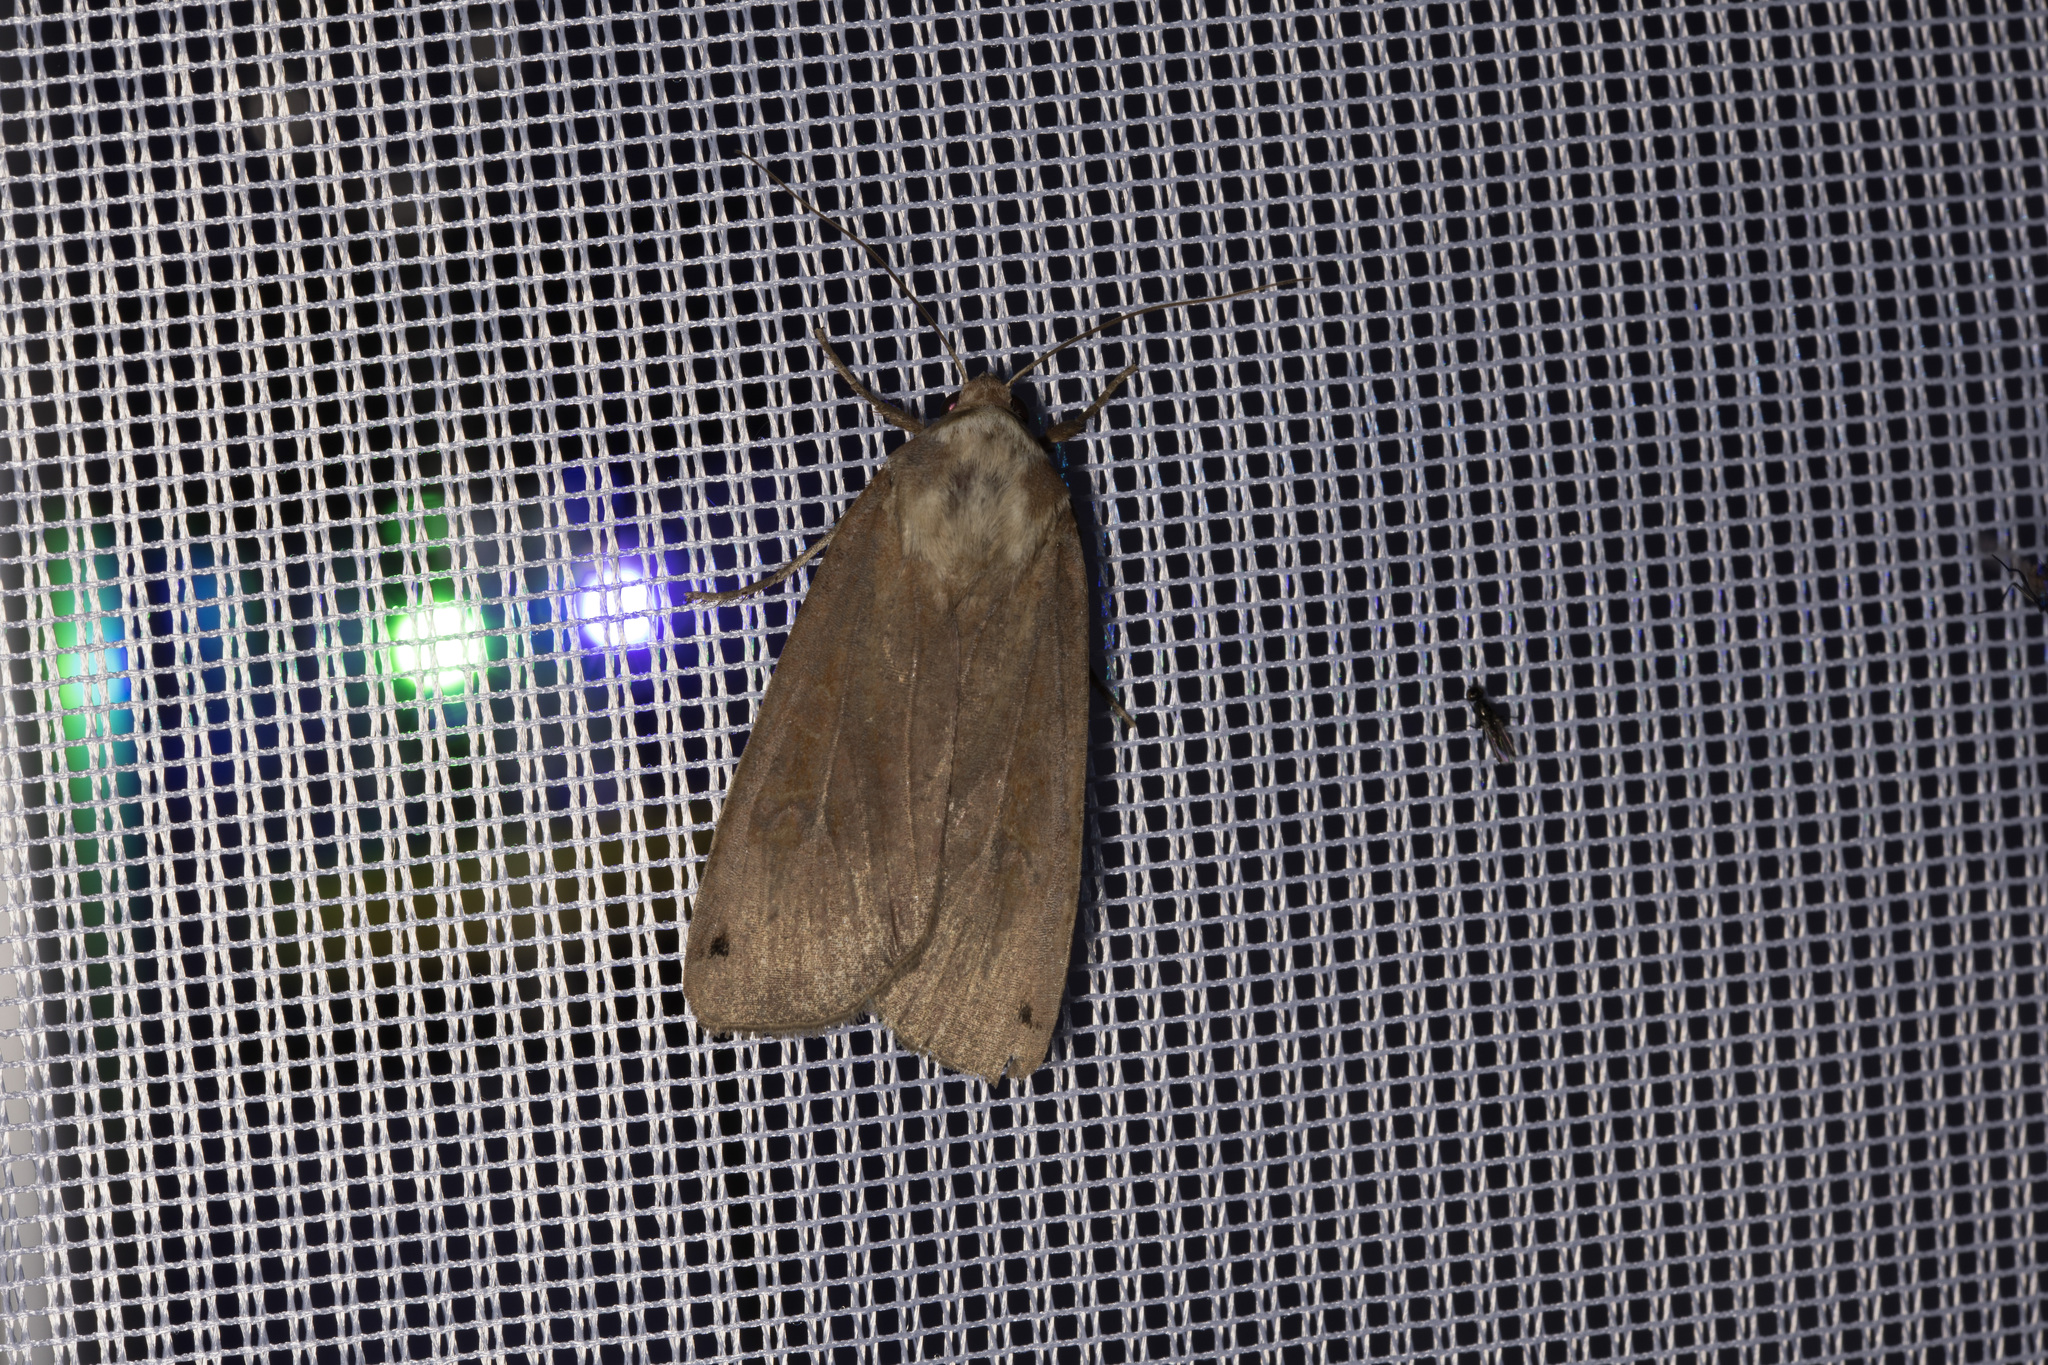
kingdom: Animalia
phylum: Arthropoda
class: Insecta
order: Lepidoptera
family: Noctuidae
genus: Noctua
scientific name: Noctua pronuba
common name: Large yellow underwing
